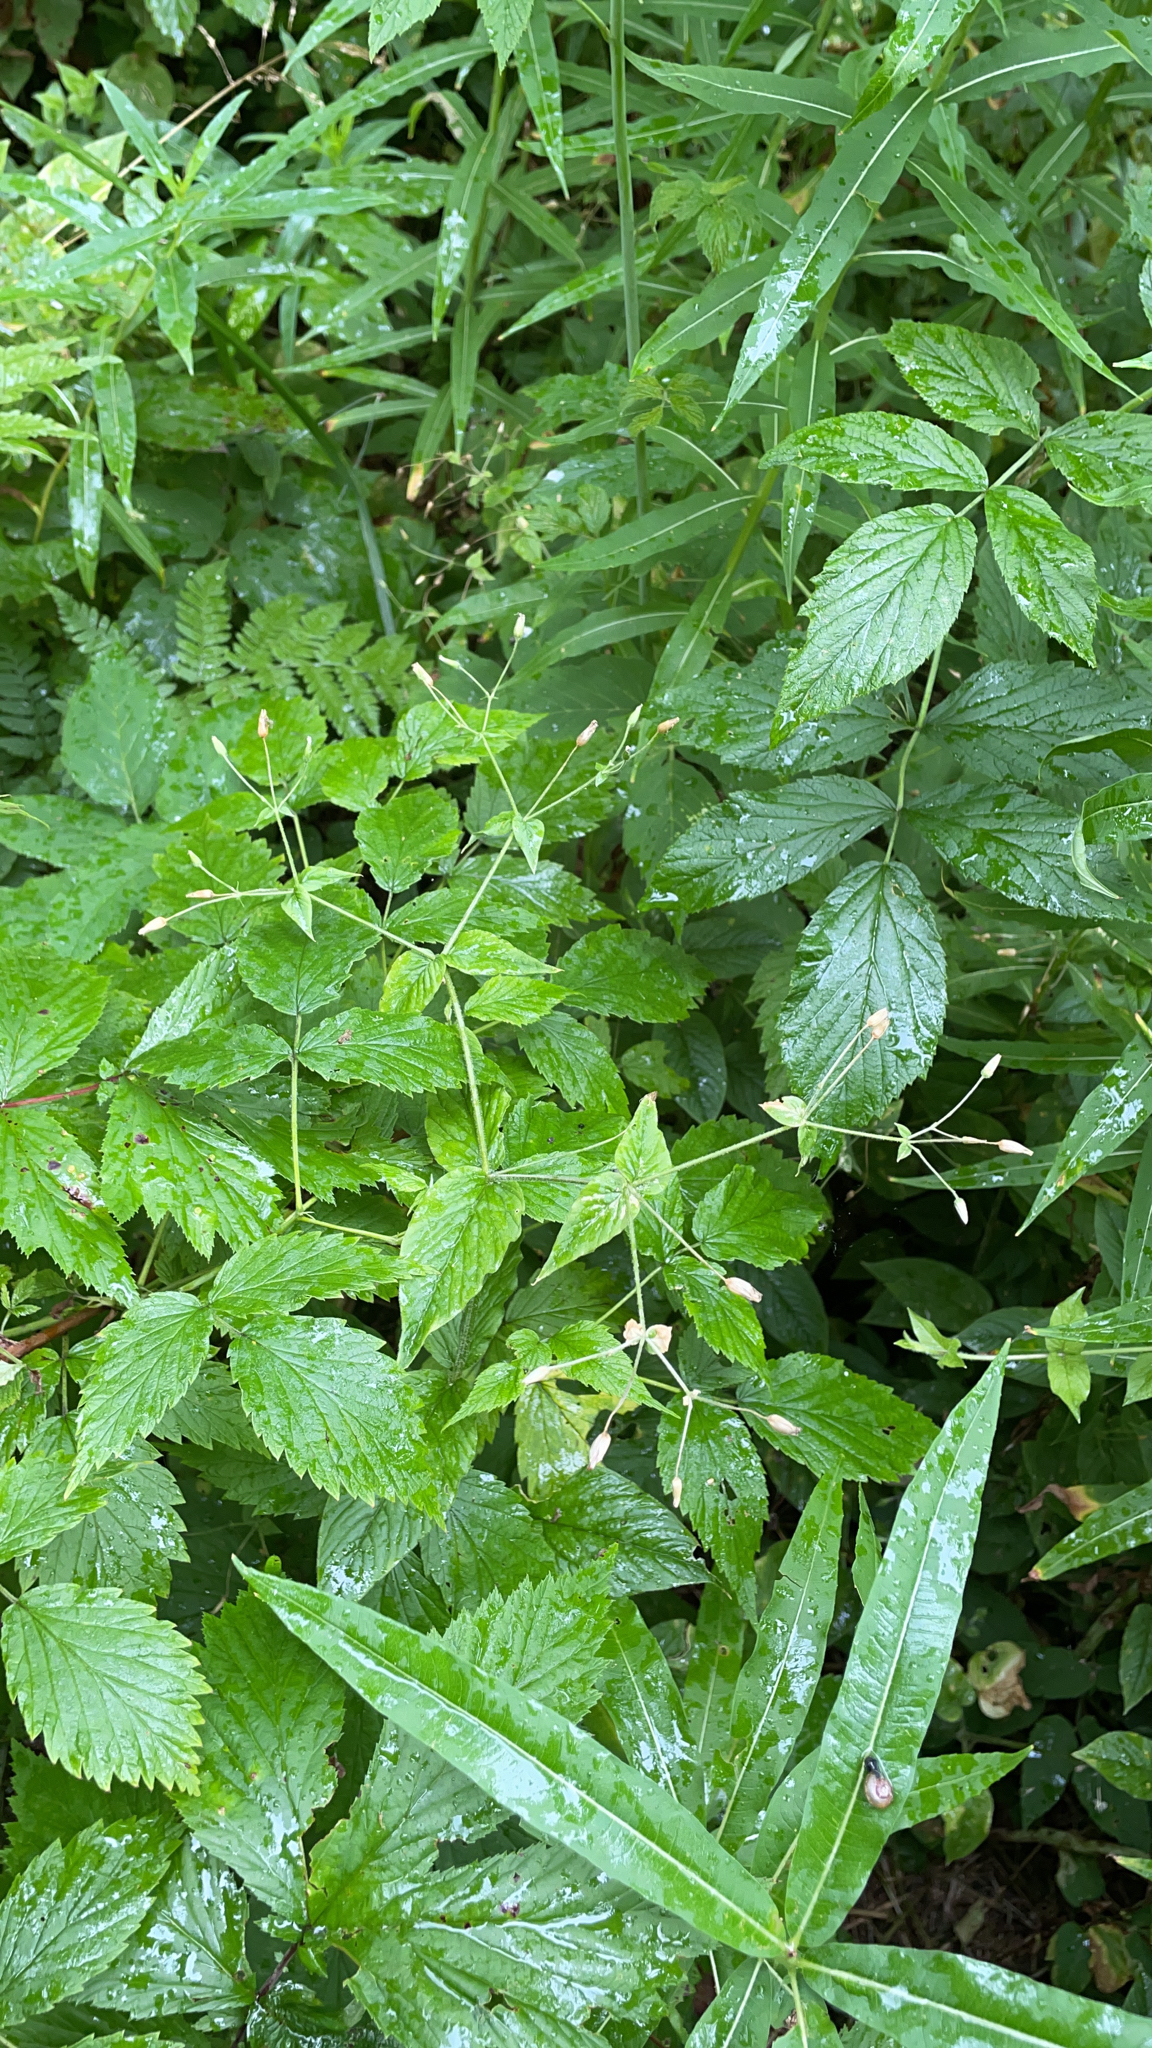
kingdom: Plantae
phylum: Tracheophyta
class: Magnoliopsida
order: Caryophyllales
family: Caryophyllaceae
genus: Stellaria
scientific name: Stellaria nemorum
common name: Wood stitchwort
